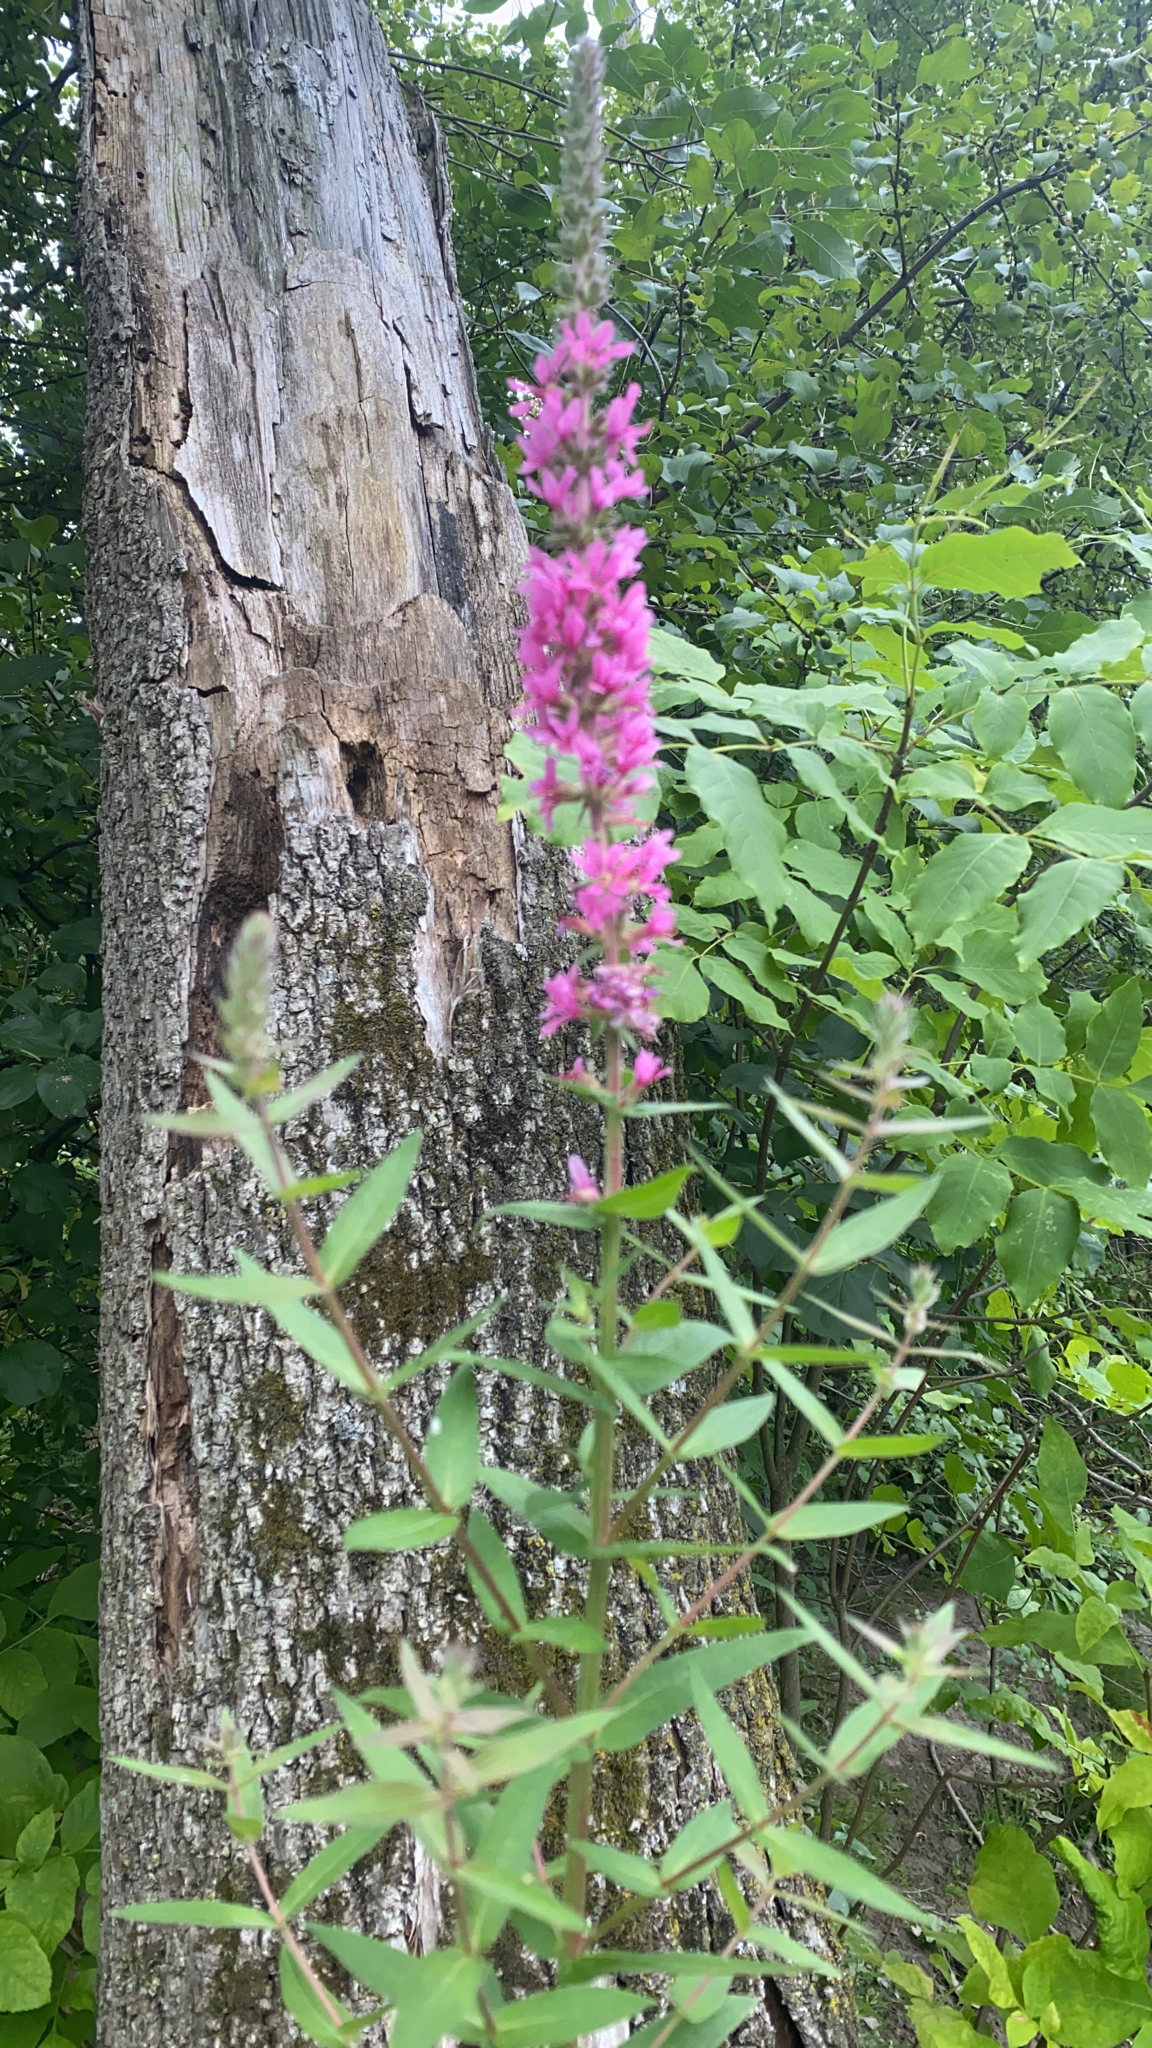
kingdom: Plantae
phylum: Tracheophyta
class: Magnoliopsida
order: Myrtales
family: Lythraceae
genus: Lythrum
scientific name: Lythrum salicaria
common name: Purple loosestrife
